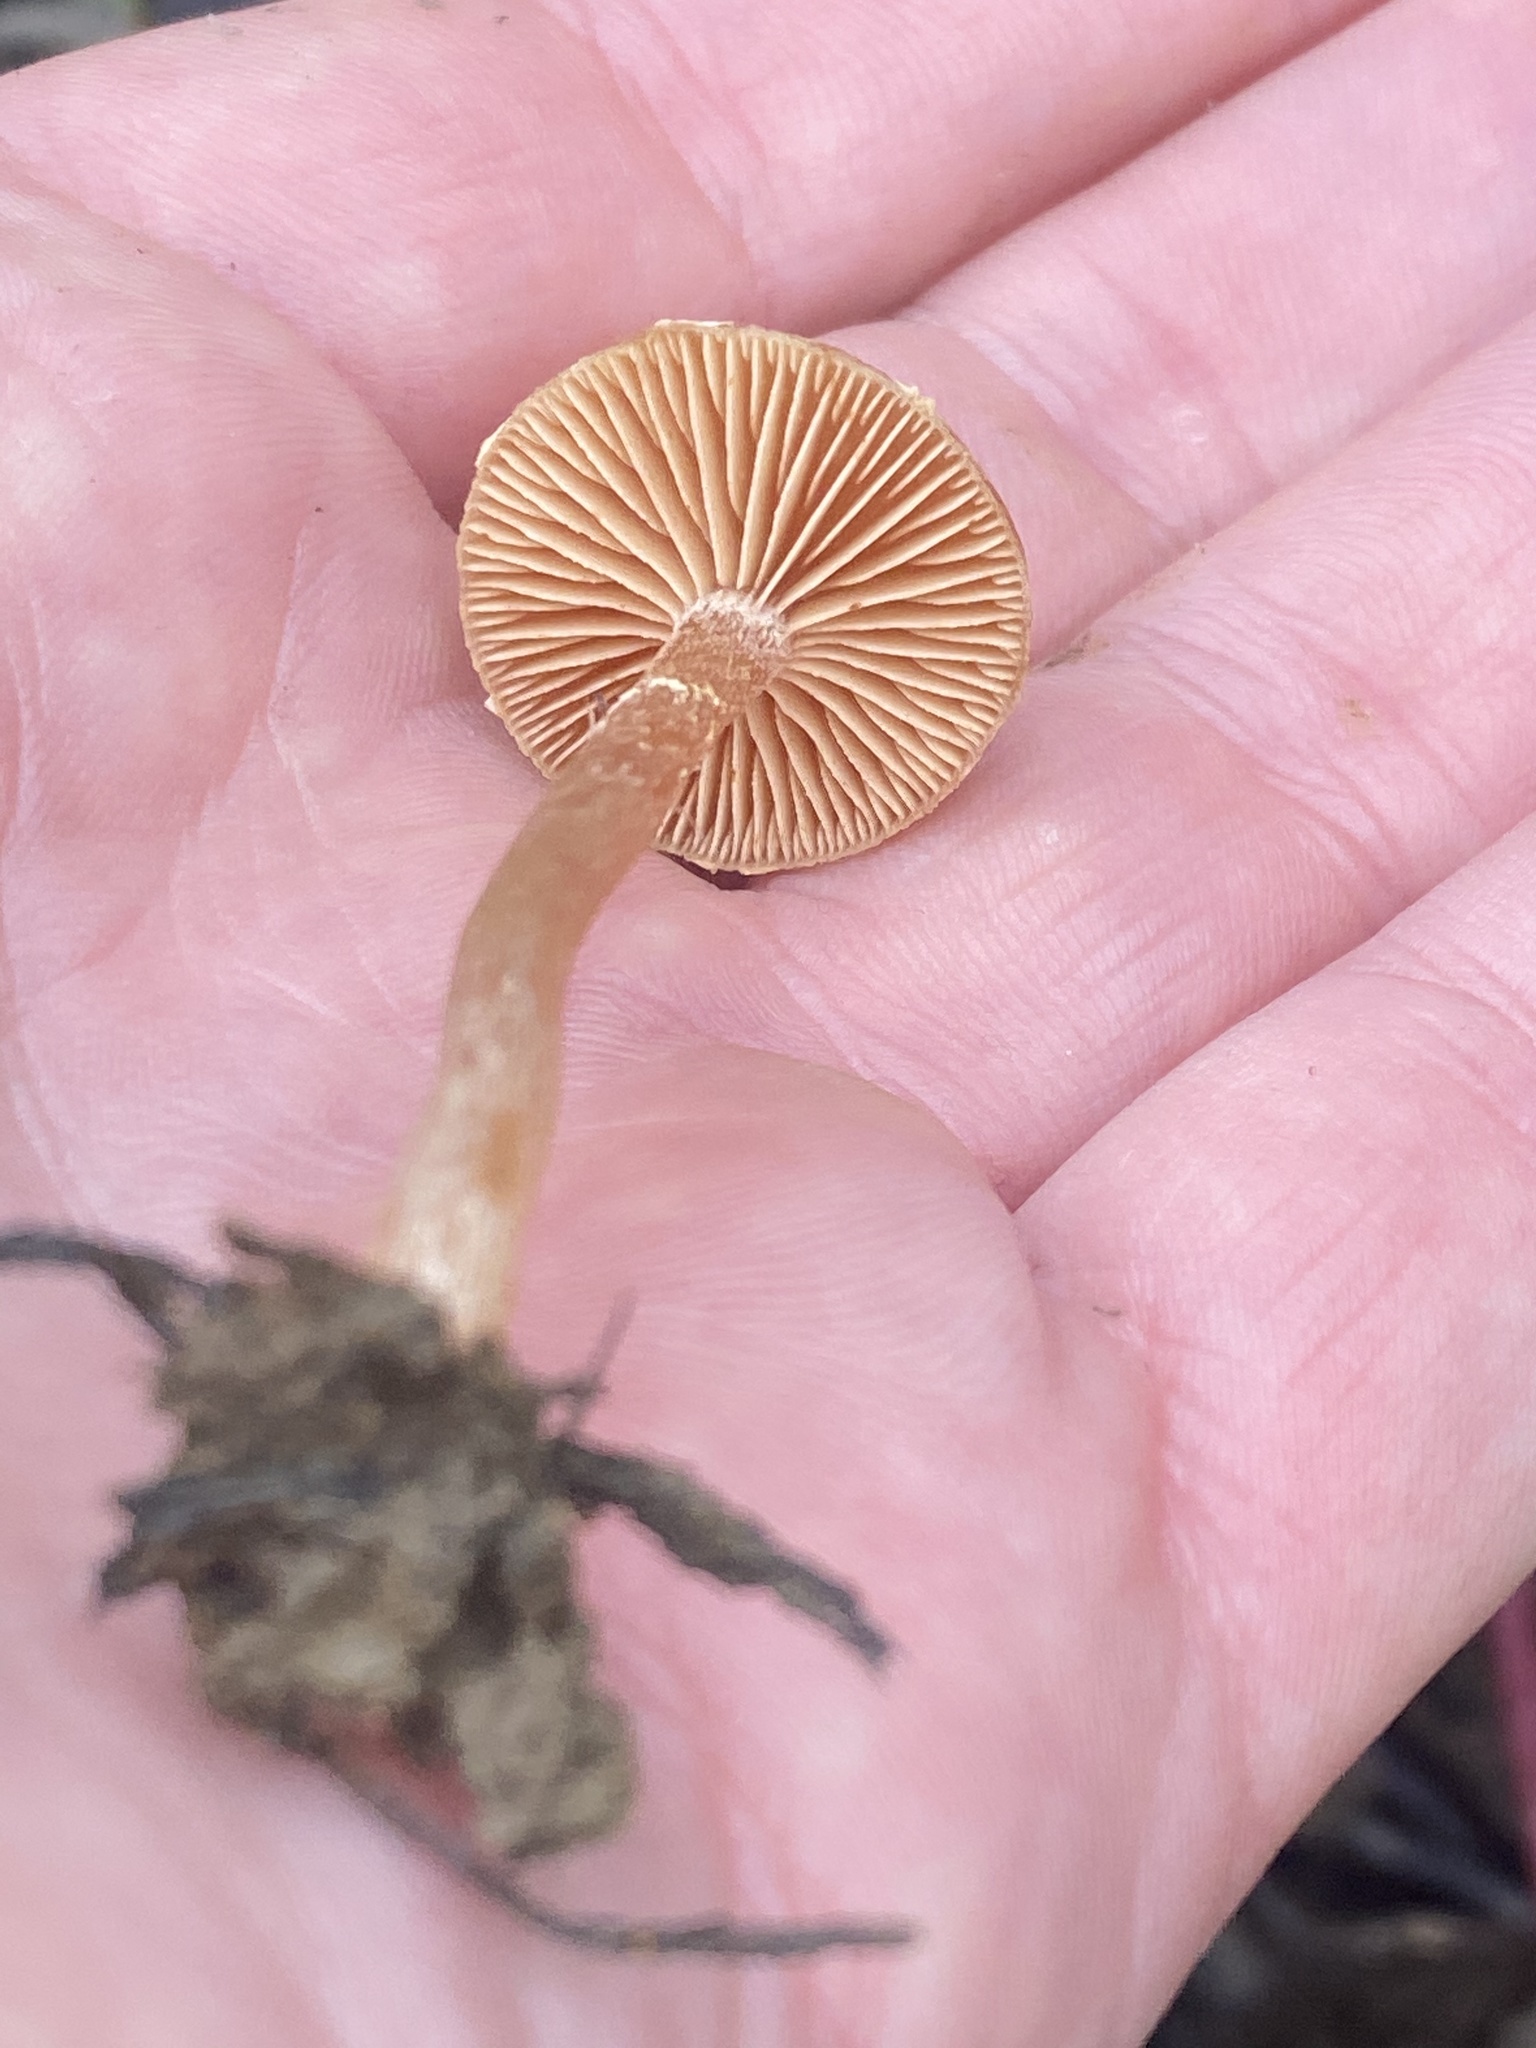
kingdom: Fungi
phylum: Basidiomycota
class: Agaricomycetes
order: Agaricales
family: Tubariaceae
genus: Tubaria
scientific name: Tubaria furfuracea
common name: Scurfy twiglet
